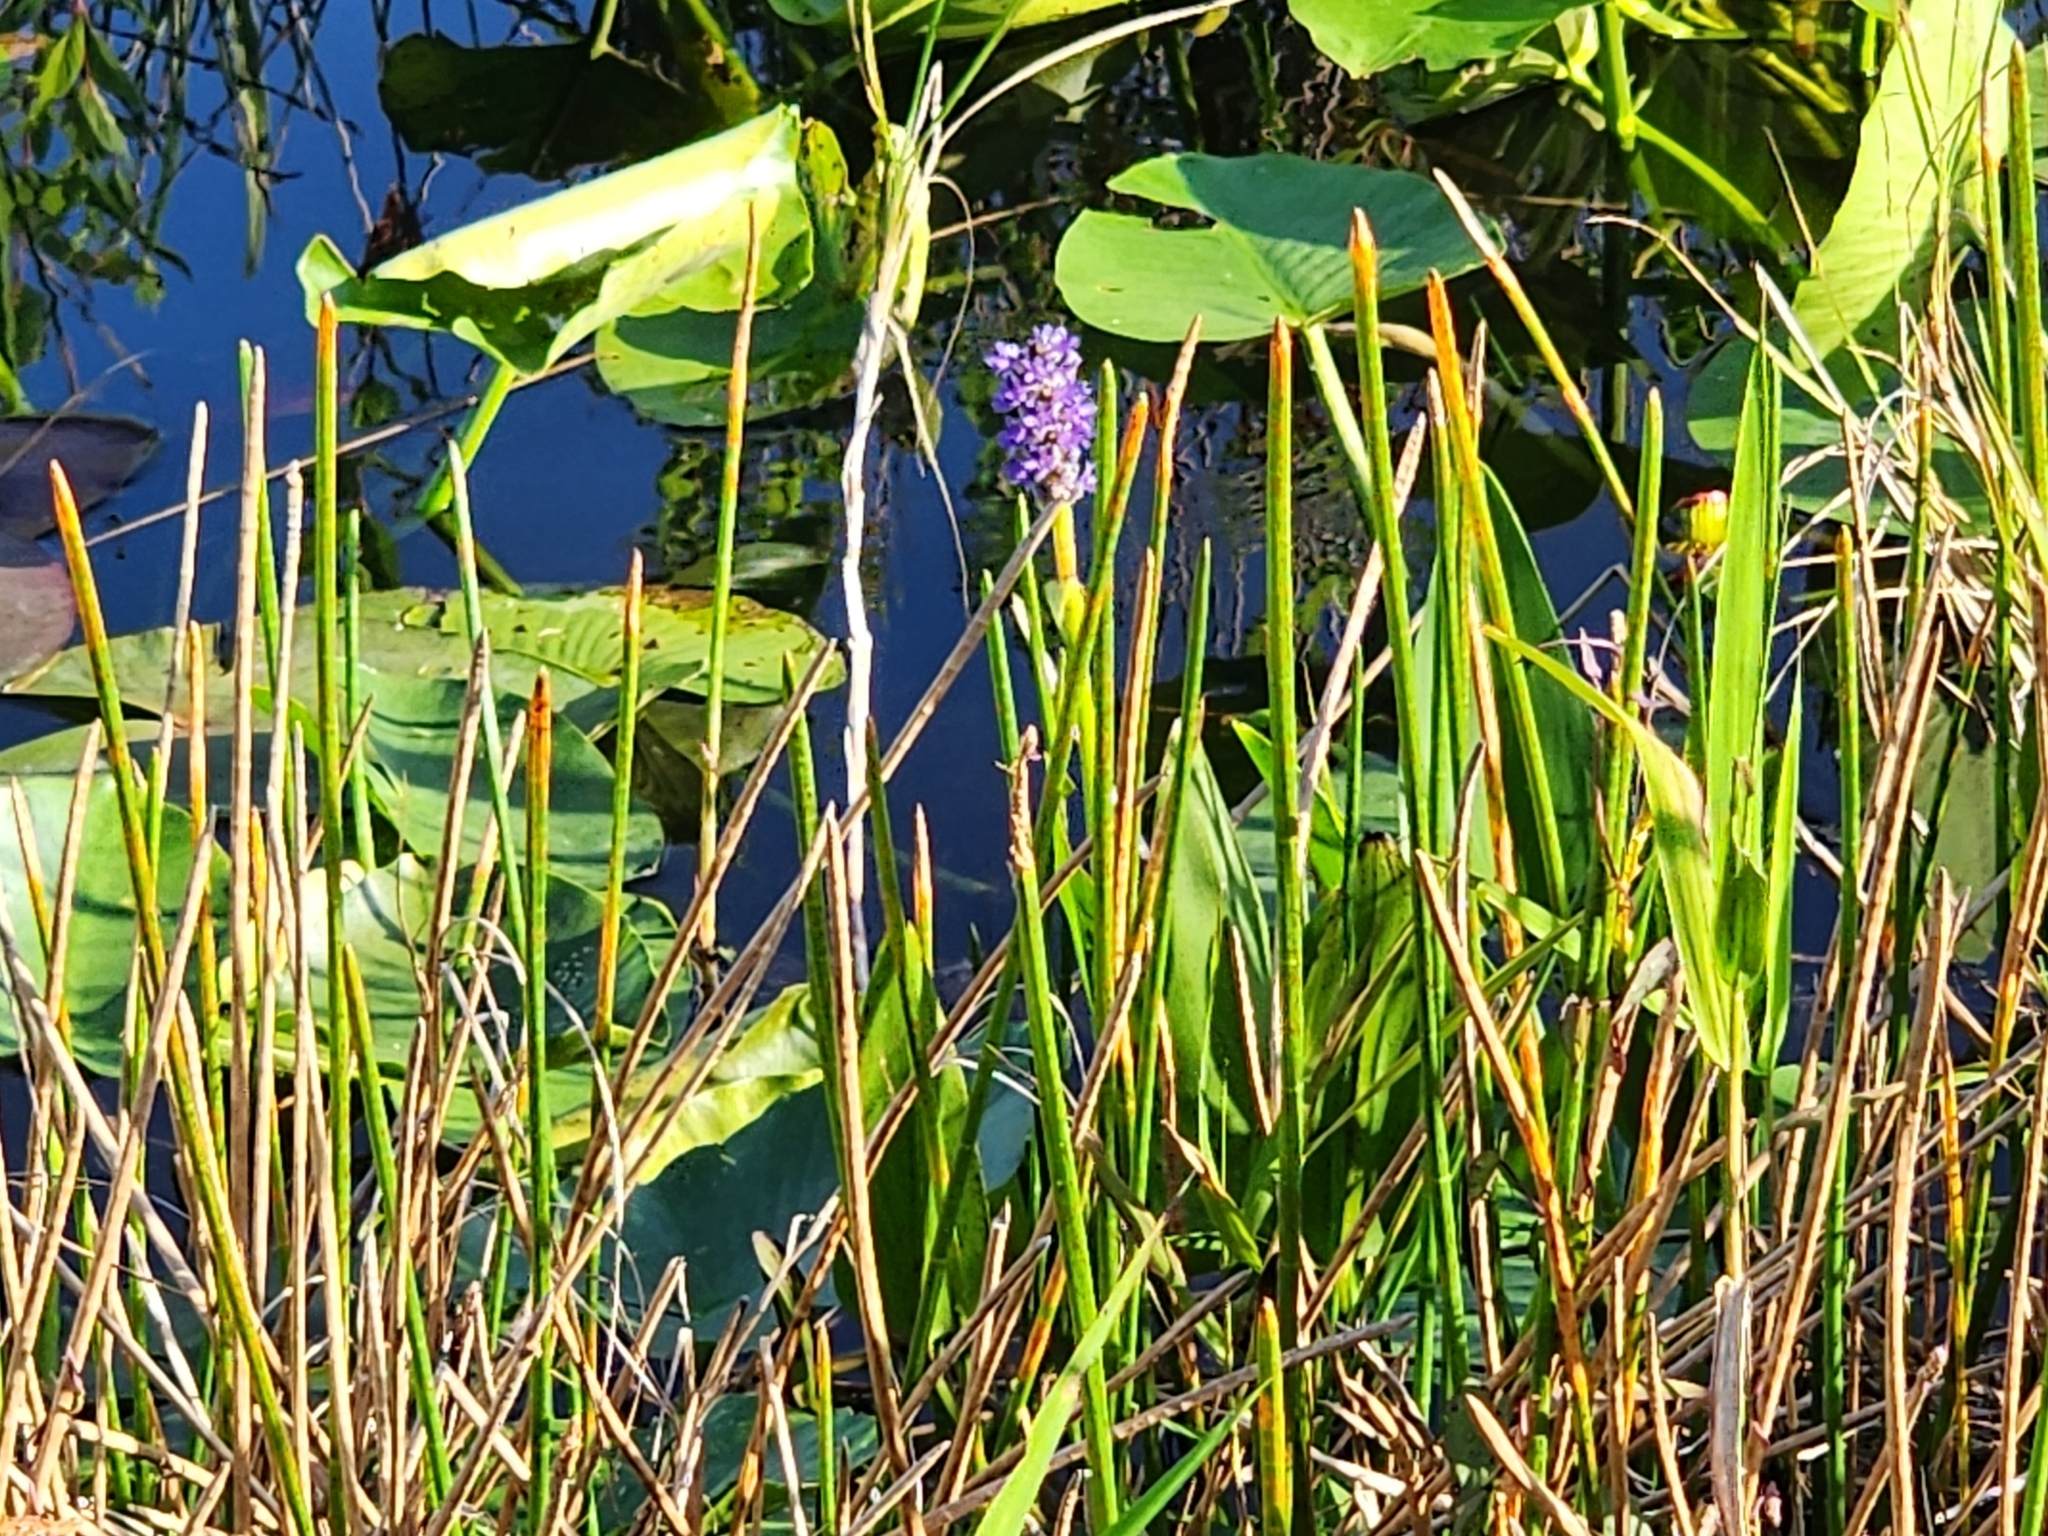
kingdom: Plantae
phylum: Tracheophyta
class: Liliopsida
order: Commelinales
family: Pontederiaceae
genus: Pontederia
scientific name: Pontederia cordata
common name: Pickerelweed
